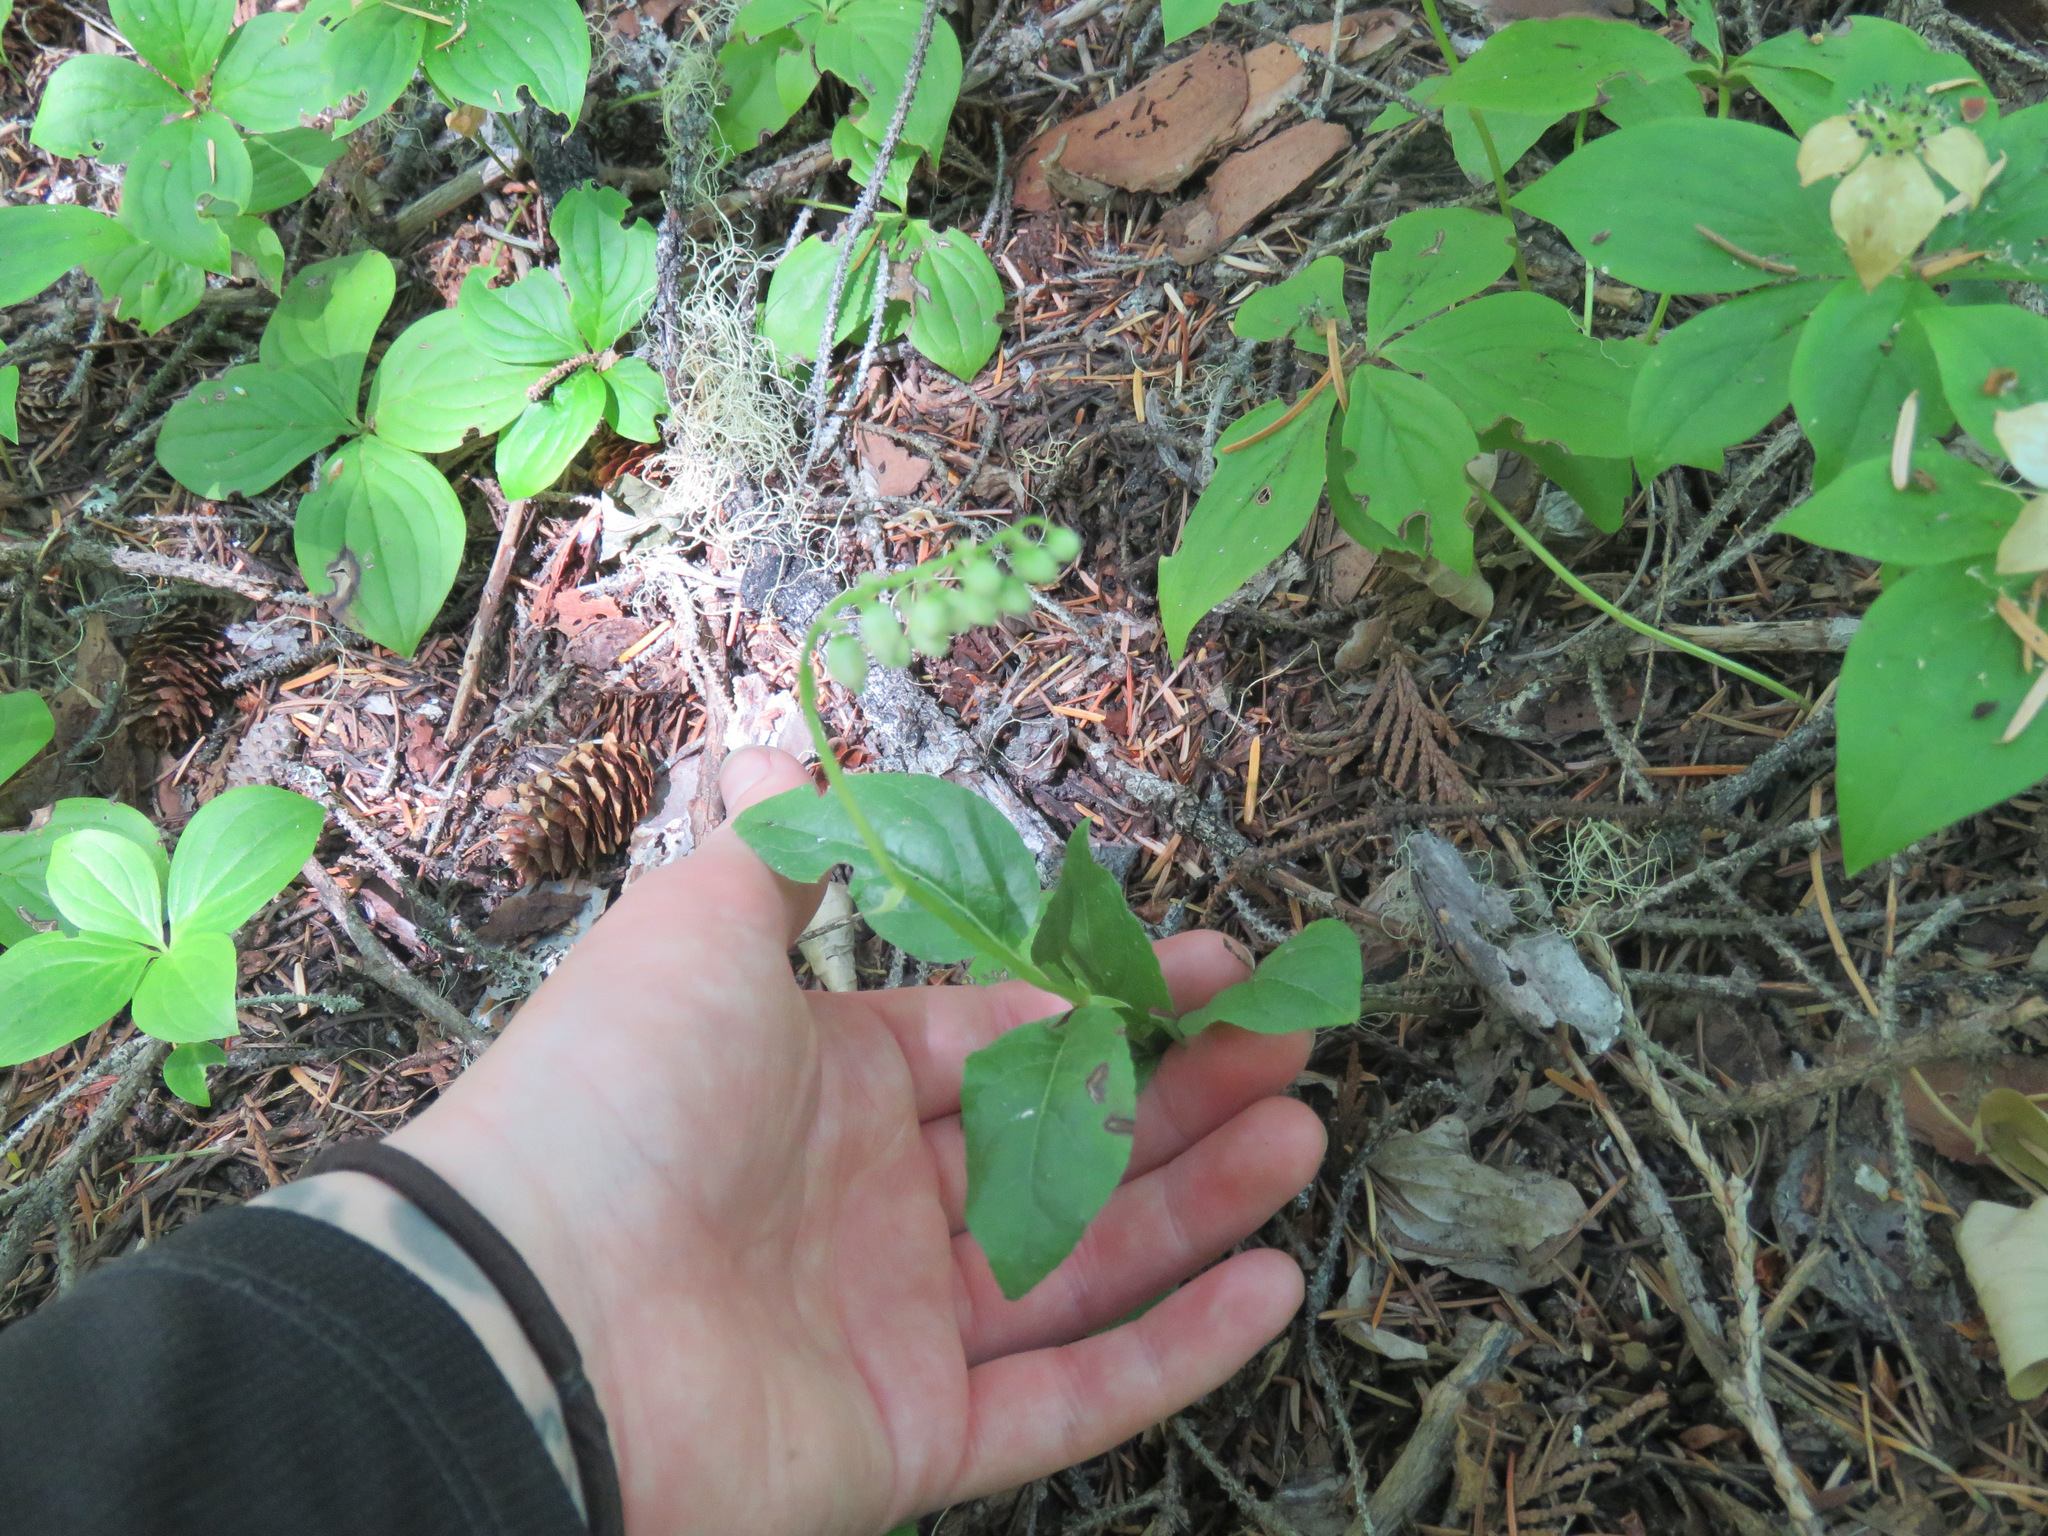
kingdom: Plantae
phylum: Tracheophyta
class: Magnoliopsida
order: Ericales
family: Ericaceae
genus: Orthilia
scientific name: Orthilia secunda
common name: One-sided orthilia
